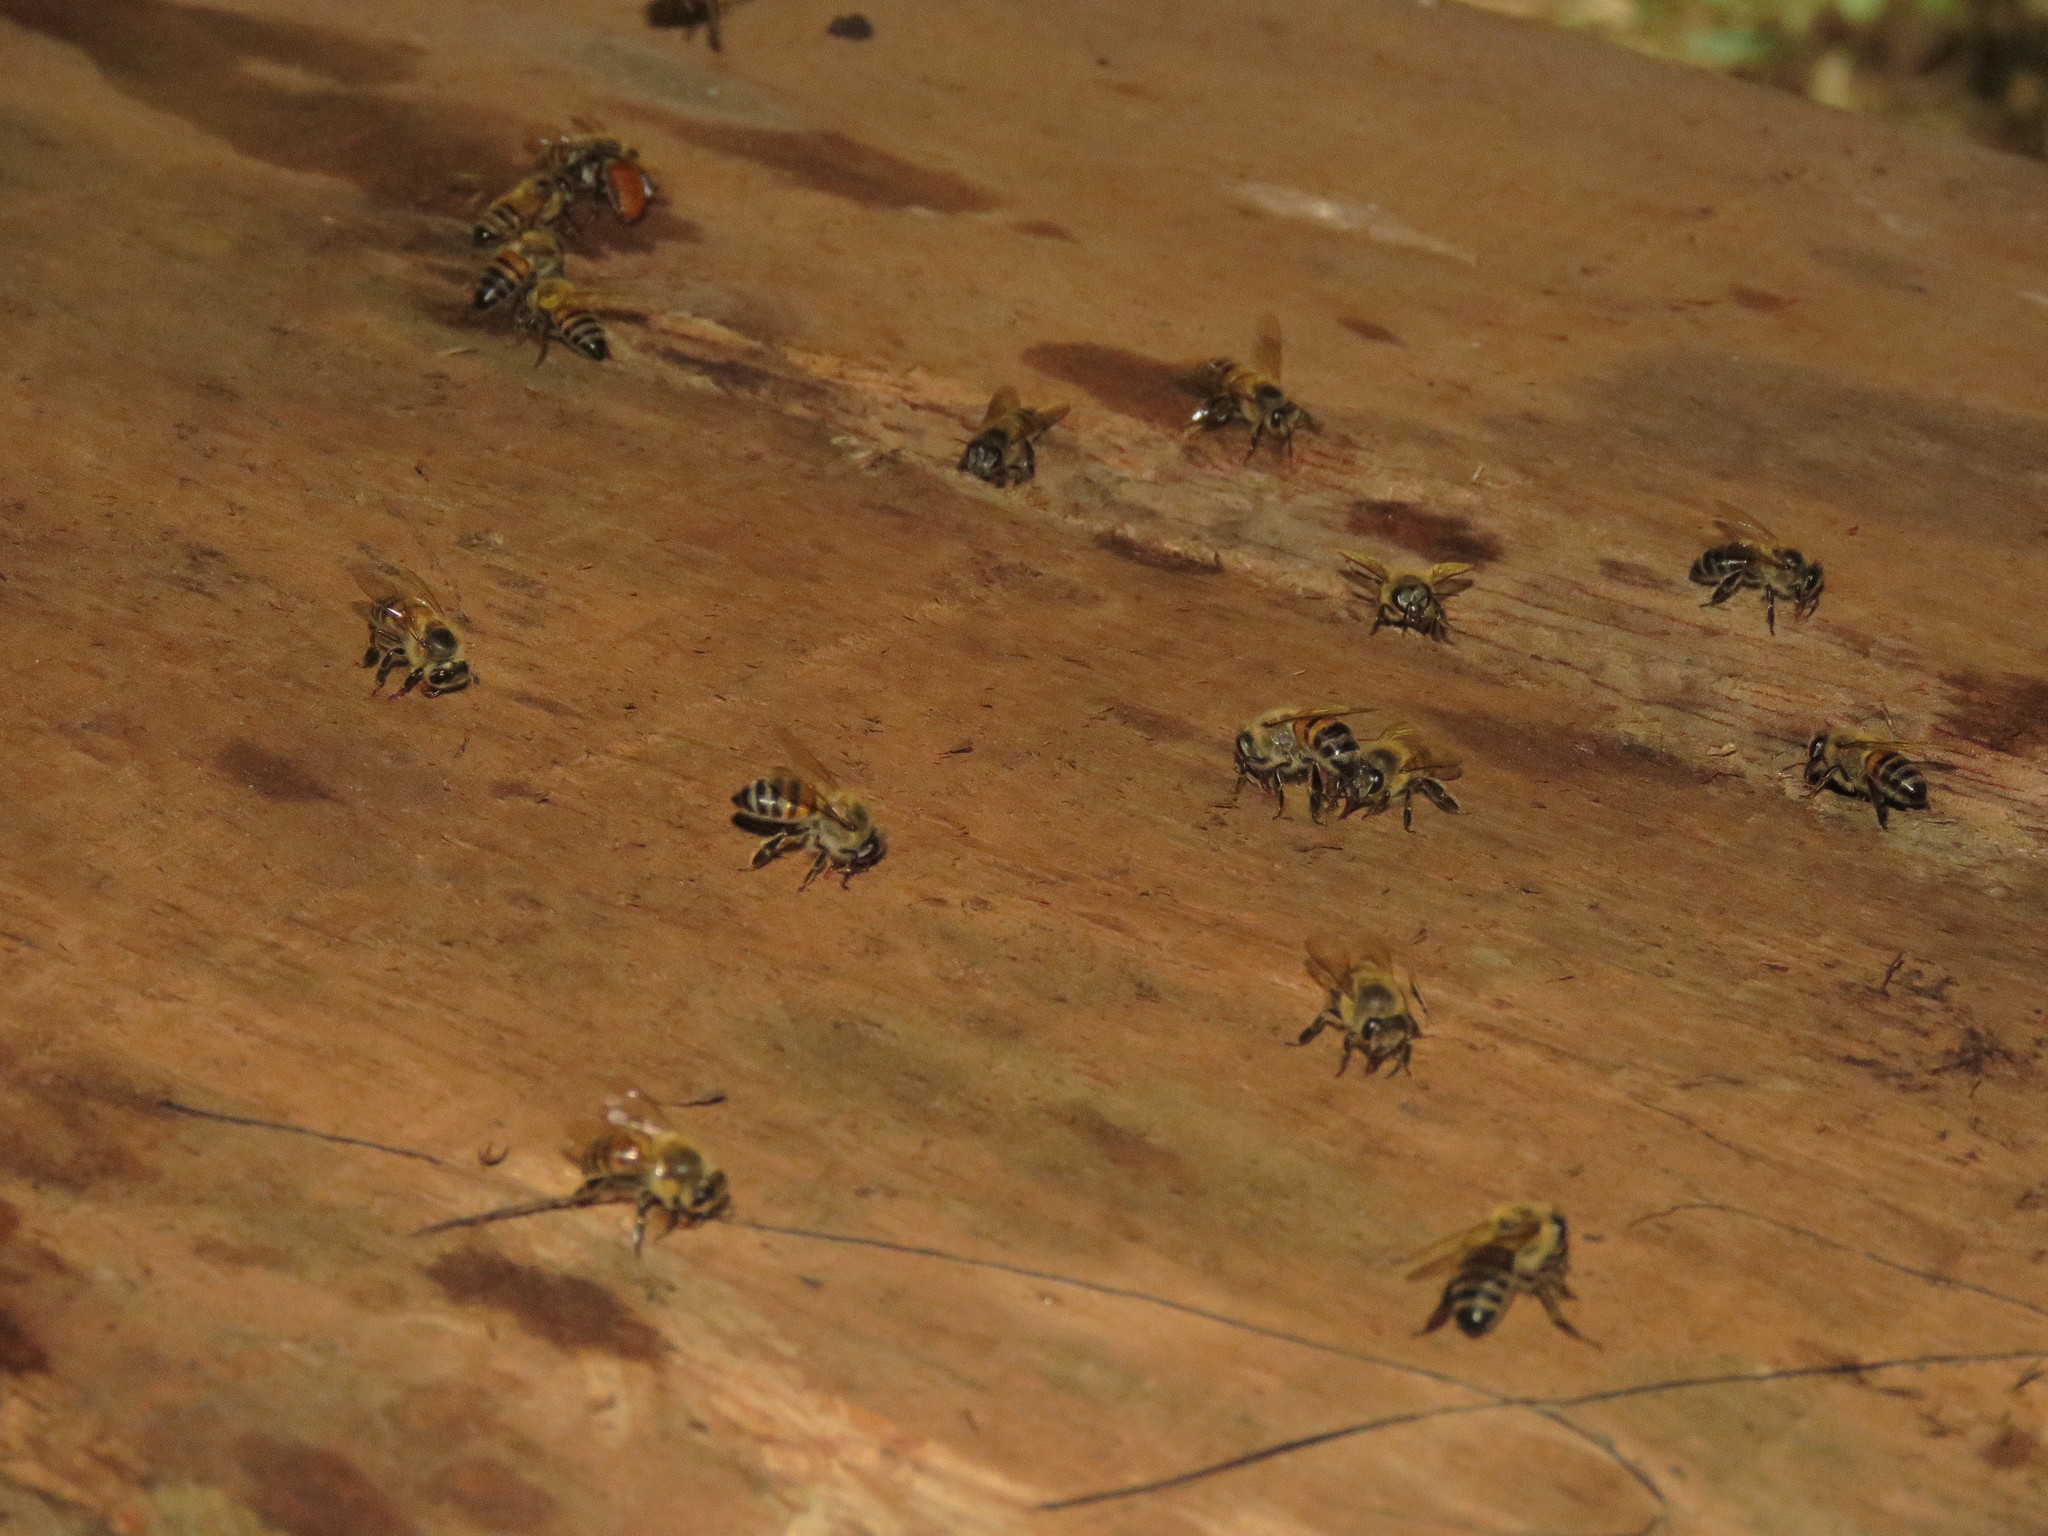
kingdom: Animalia
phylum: Arthropoda
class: Insecta
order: Hymenoptera
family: Apidae
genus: Apis
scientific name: Apis mellifera
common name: Honey bee
